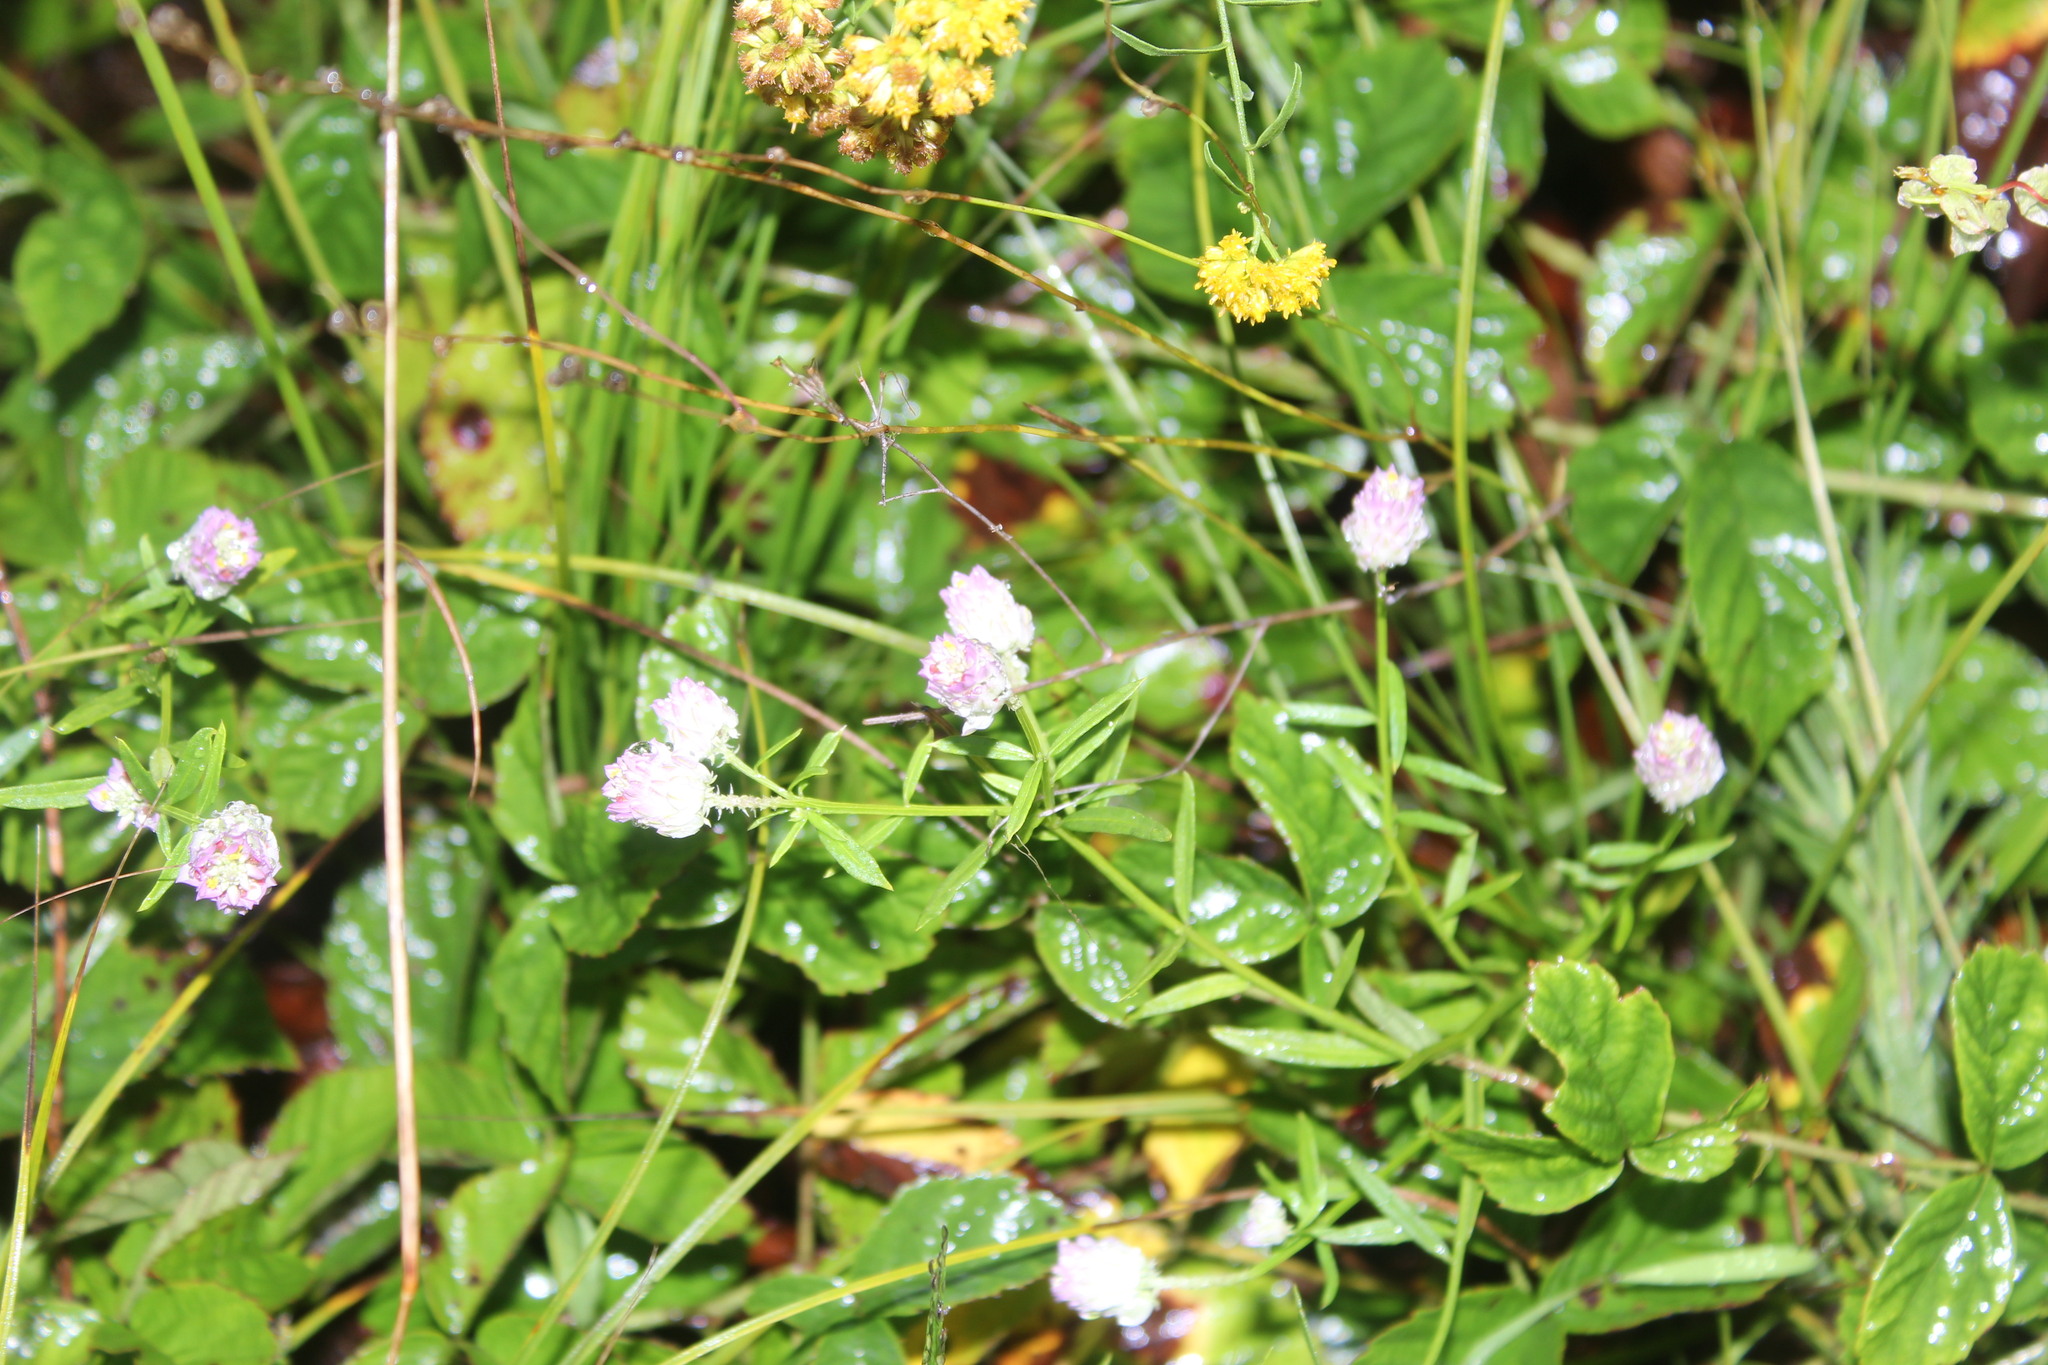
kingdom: Plantae
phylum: Tracheophyta
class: Magnoliopsida
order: Fabales
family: Polygalaceae
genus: Polygala
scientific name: Polygala sanguinea
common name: Blood milkwort
